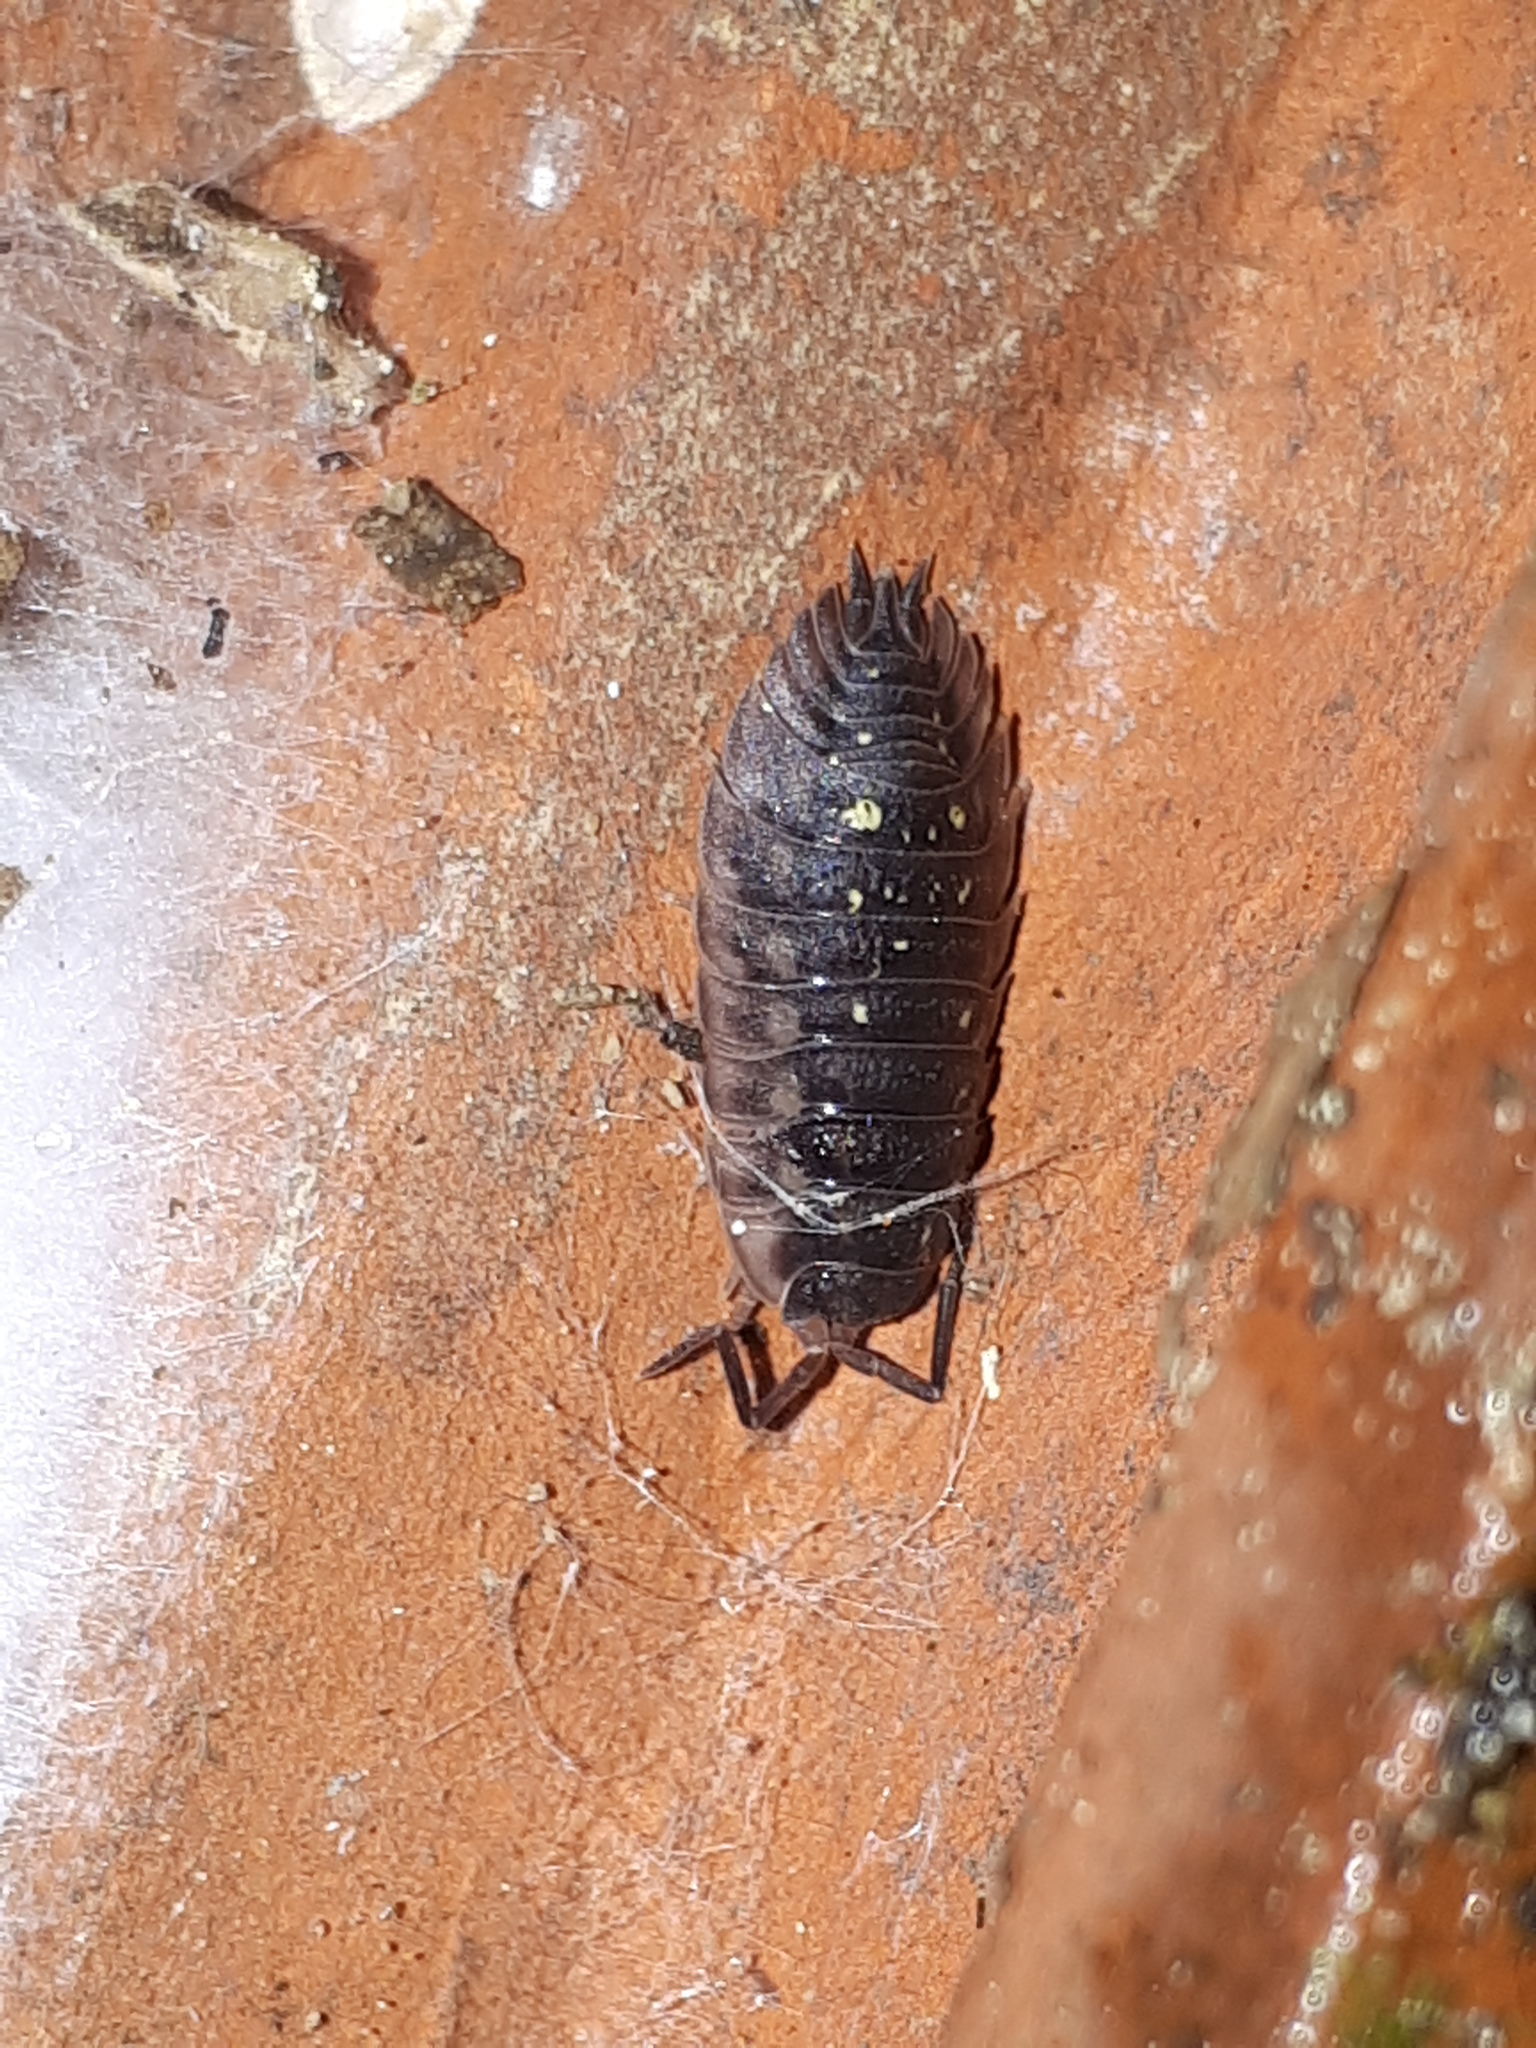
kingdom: Animalia
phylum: Arthropoda
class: Malacostraca
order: Isopoda
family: Oniscidae
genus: Oniscus
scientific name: Oniscus asellus
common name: Common shiny woodlouse
